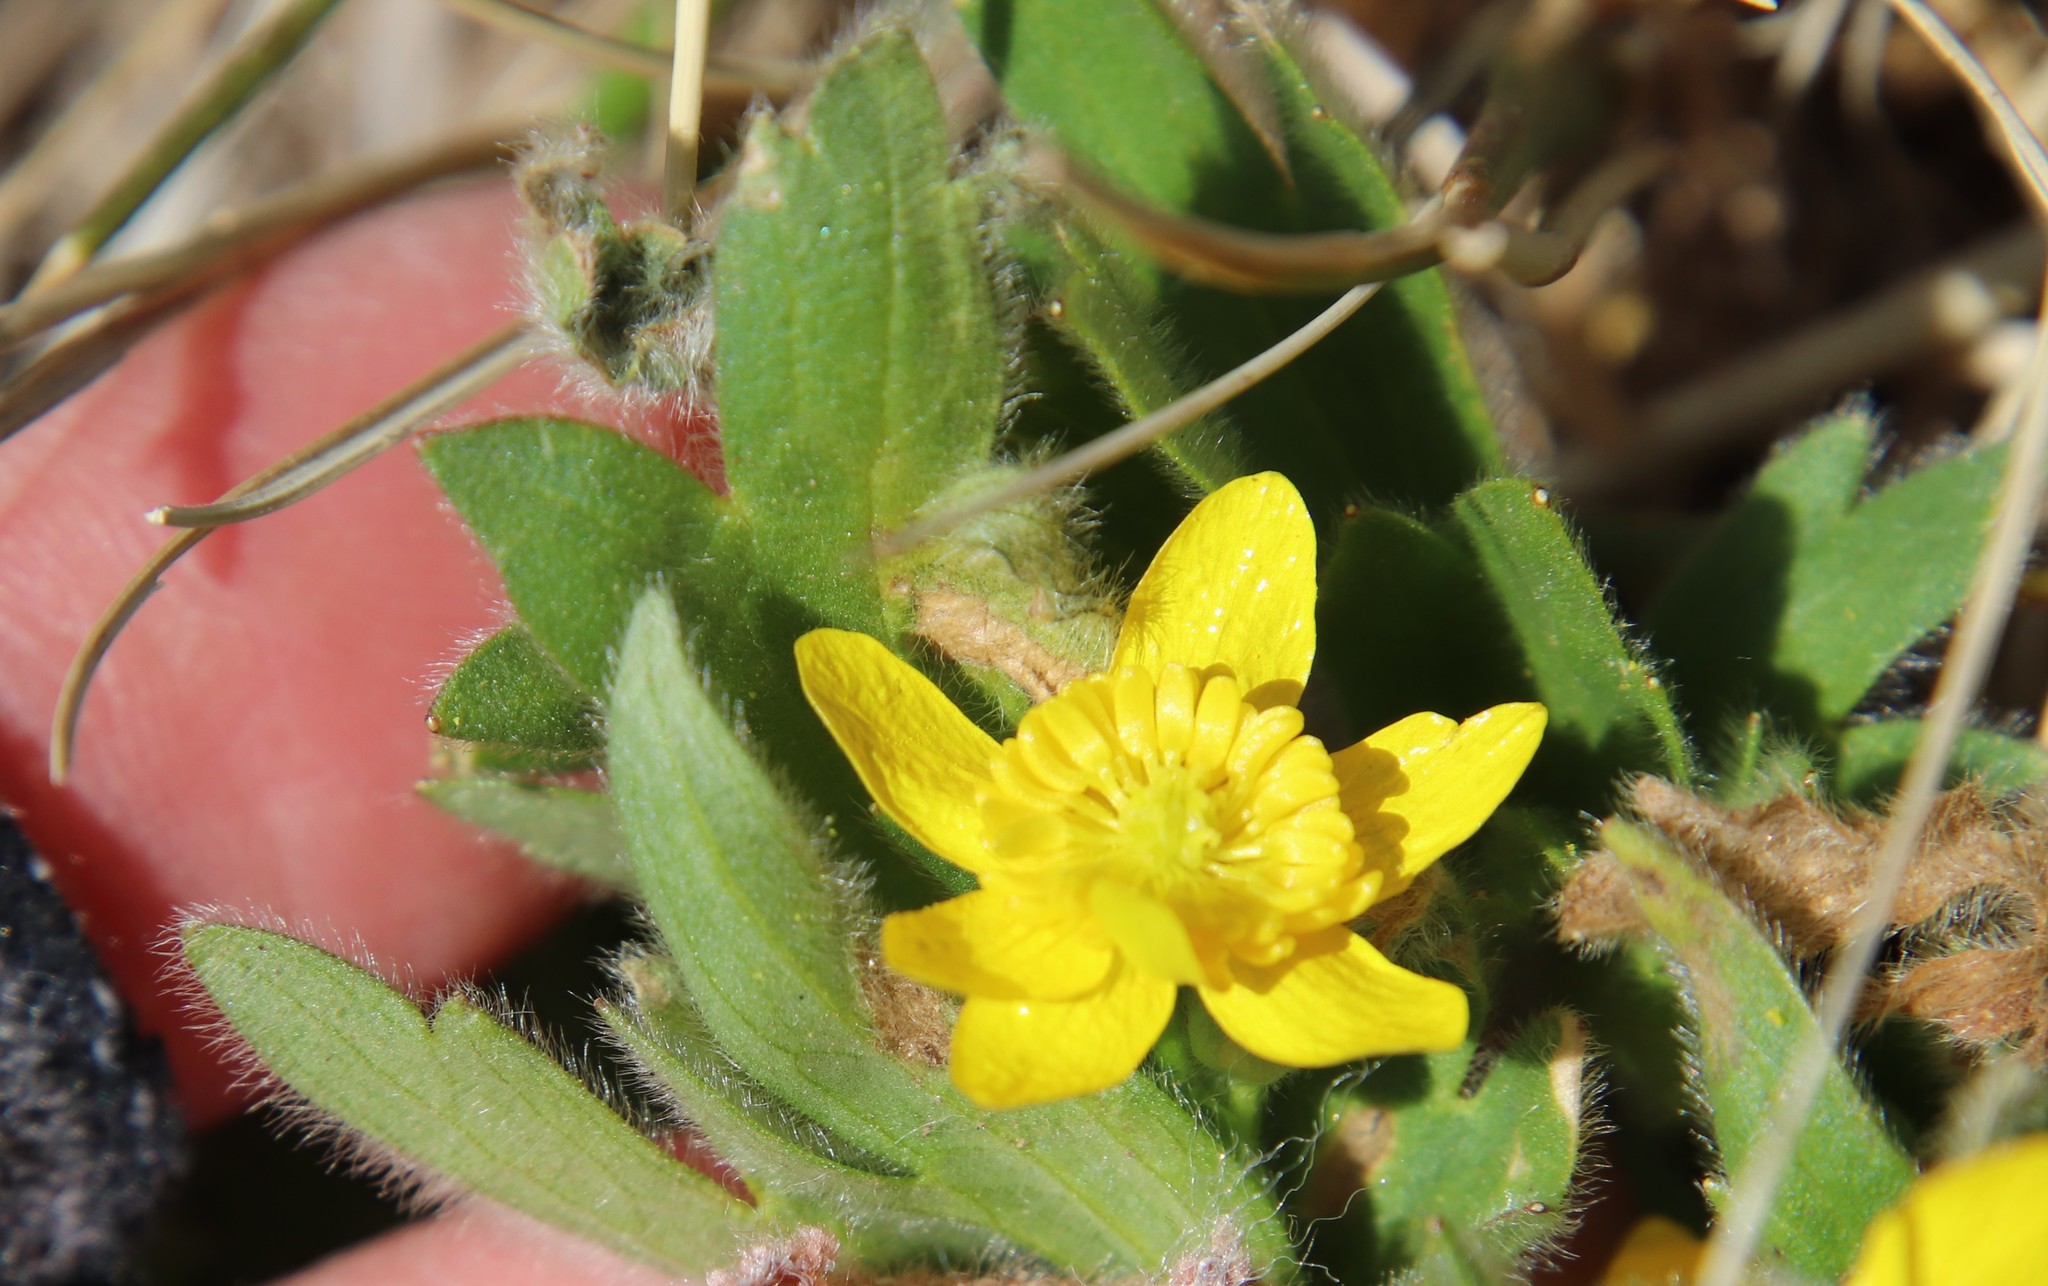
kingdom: Plantae
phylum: Tracheophyta
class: Magnoliopsida
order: Ranunculales
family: Ranunculaceae
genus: Ranunculus
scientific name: Ranunculus occidentalis
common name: Western buttercup
